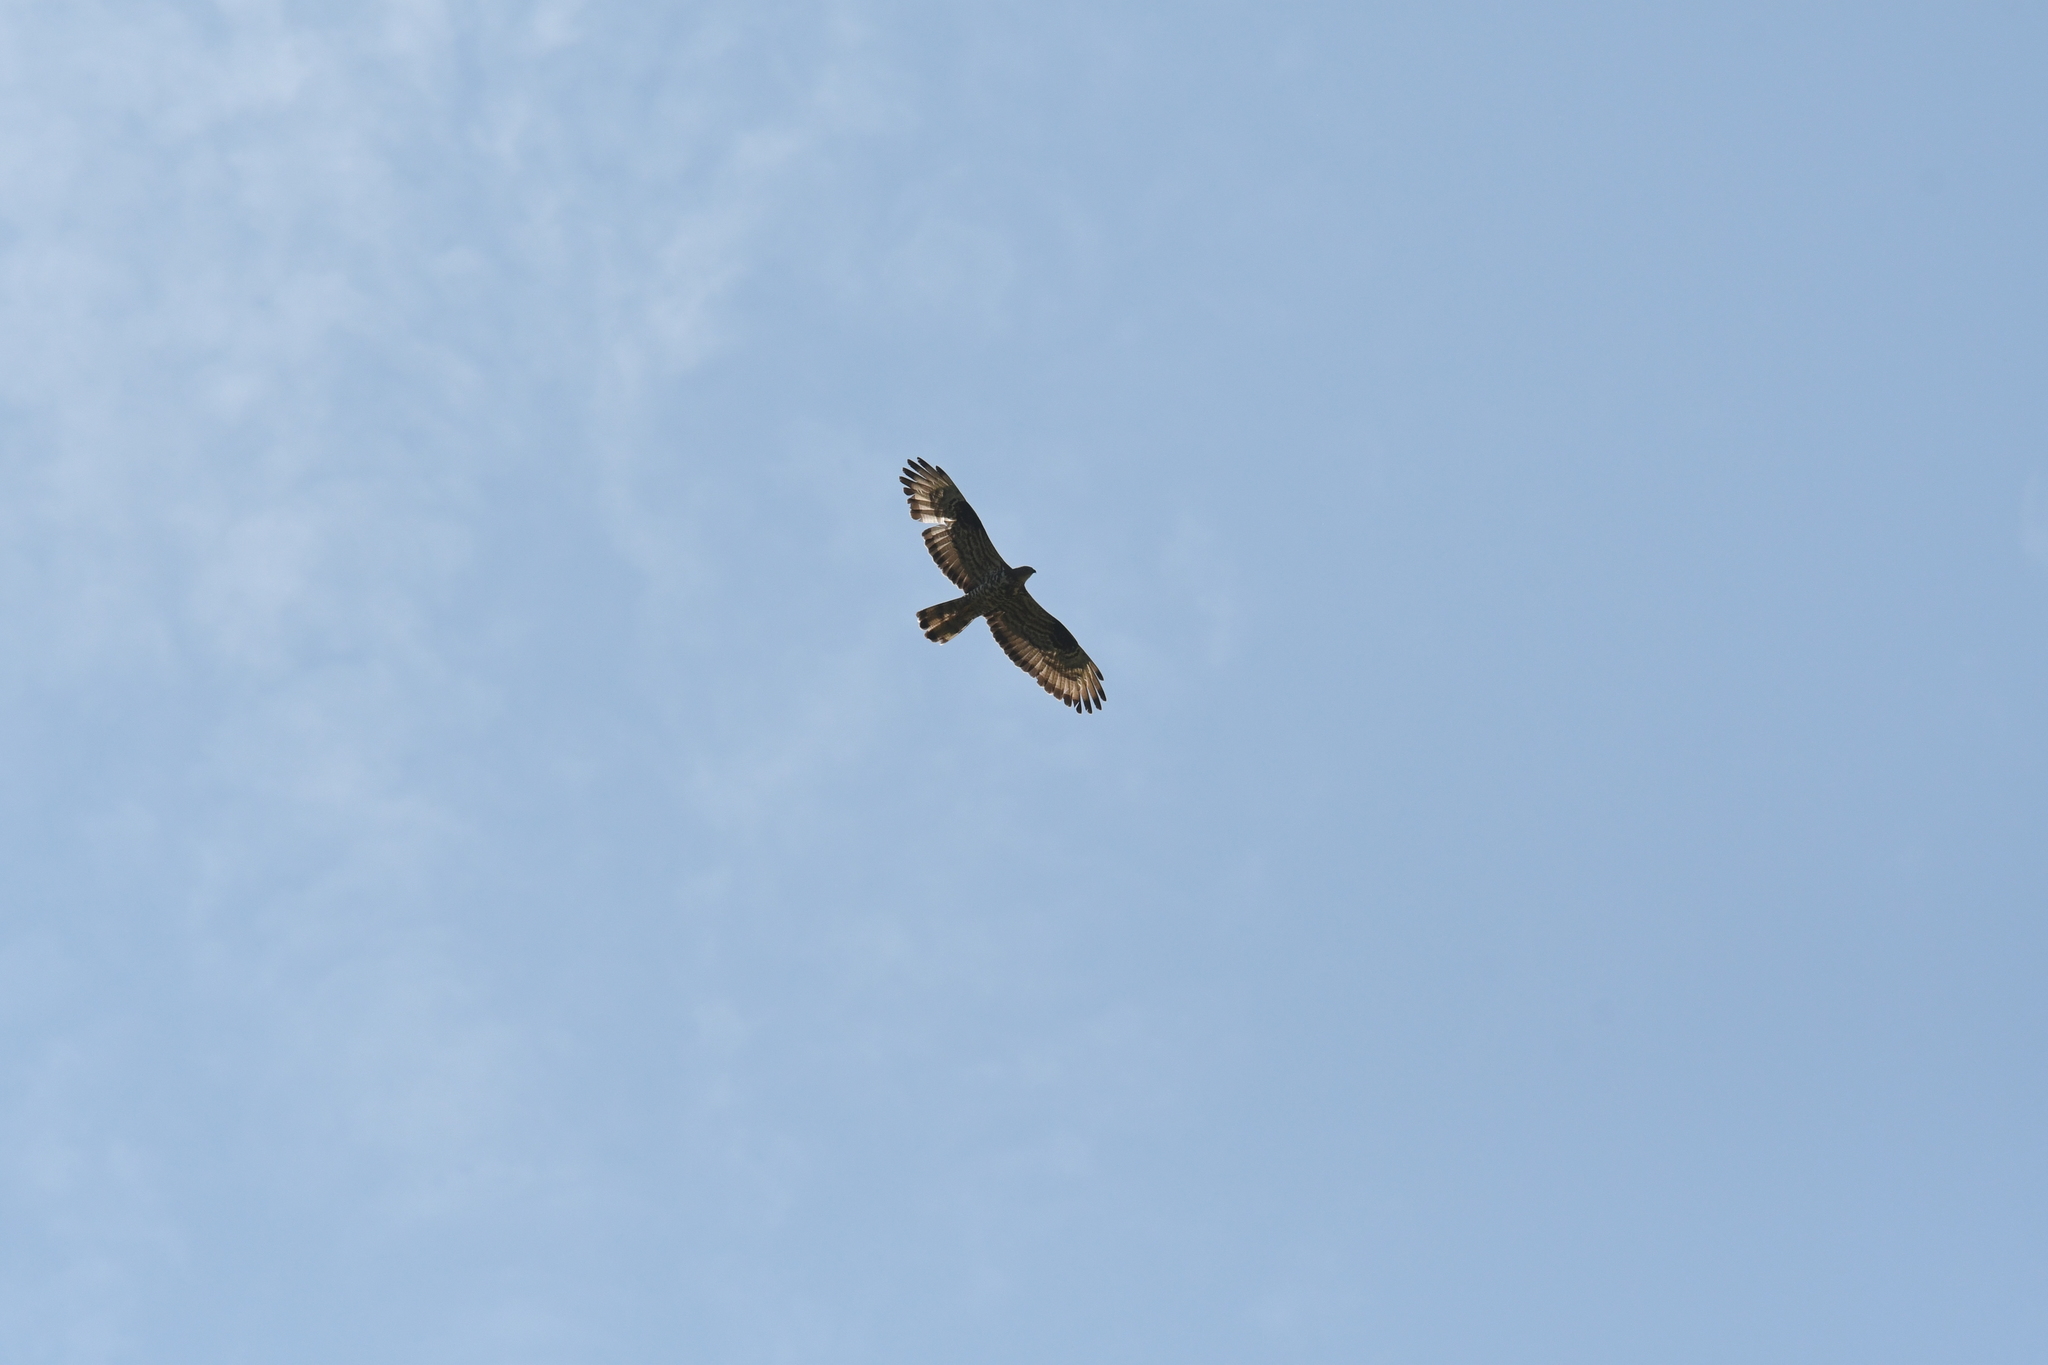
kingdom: Animalia
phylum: Chordata
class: Aves
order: Accipitriformes
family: Accipitridae
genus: Pernis
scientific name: Pernis apivorus
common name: European honey buzzard
